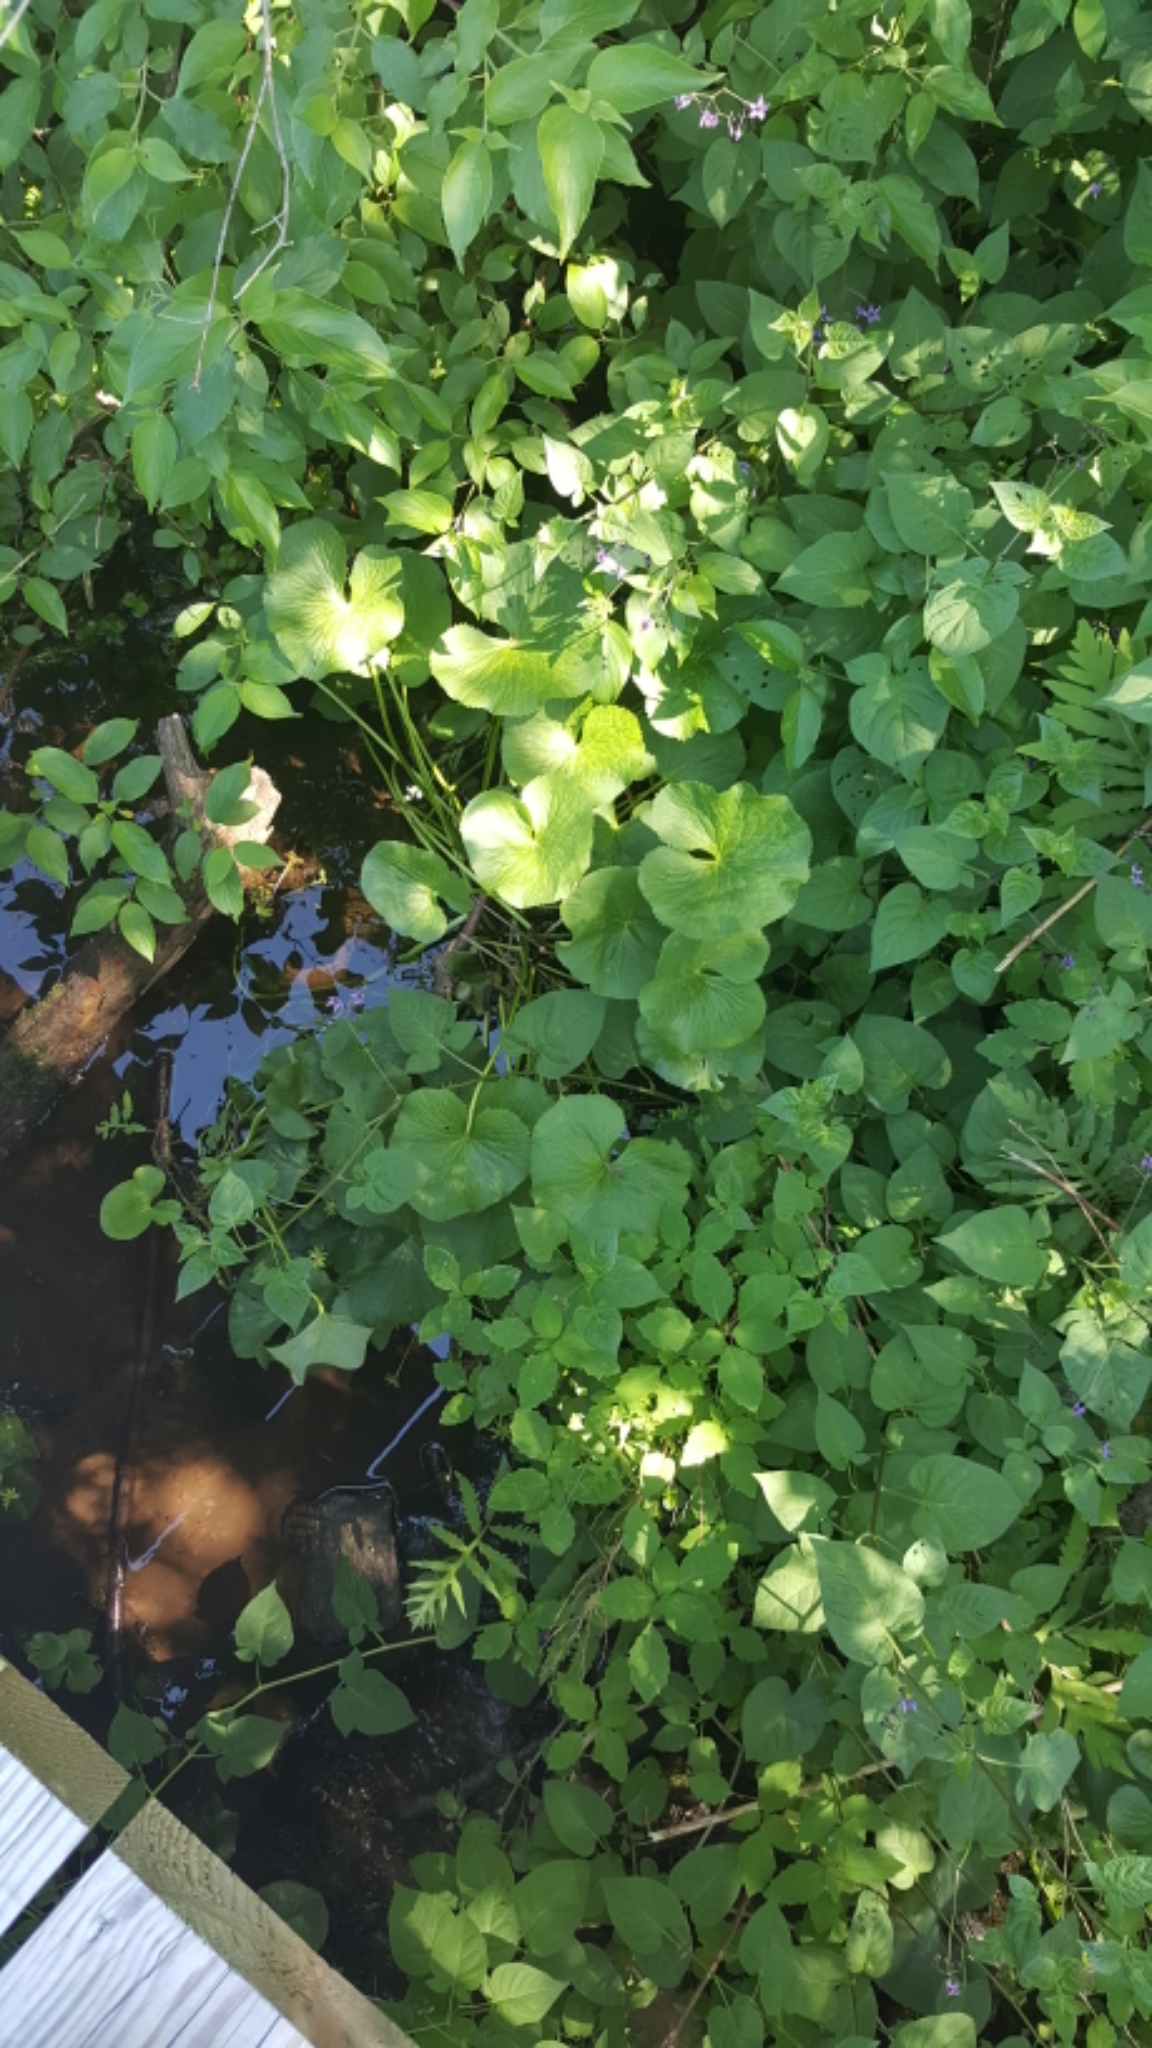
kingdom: Plantae
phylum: Tracheophyta
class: Magnoliopsida
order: Ranunculales
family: Ranunculaceae
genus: Caltha
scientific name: Caltha palustris
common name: Marsh marigold
